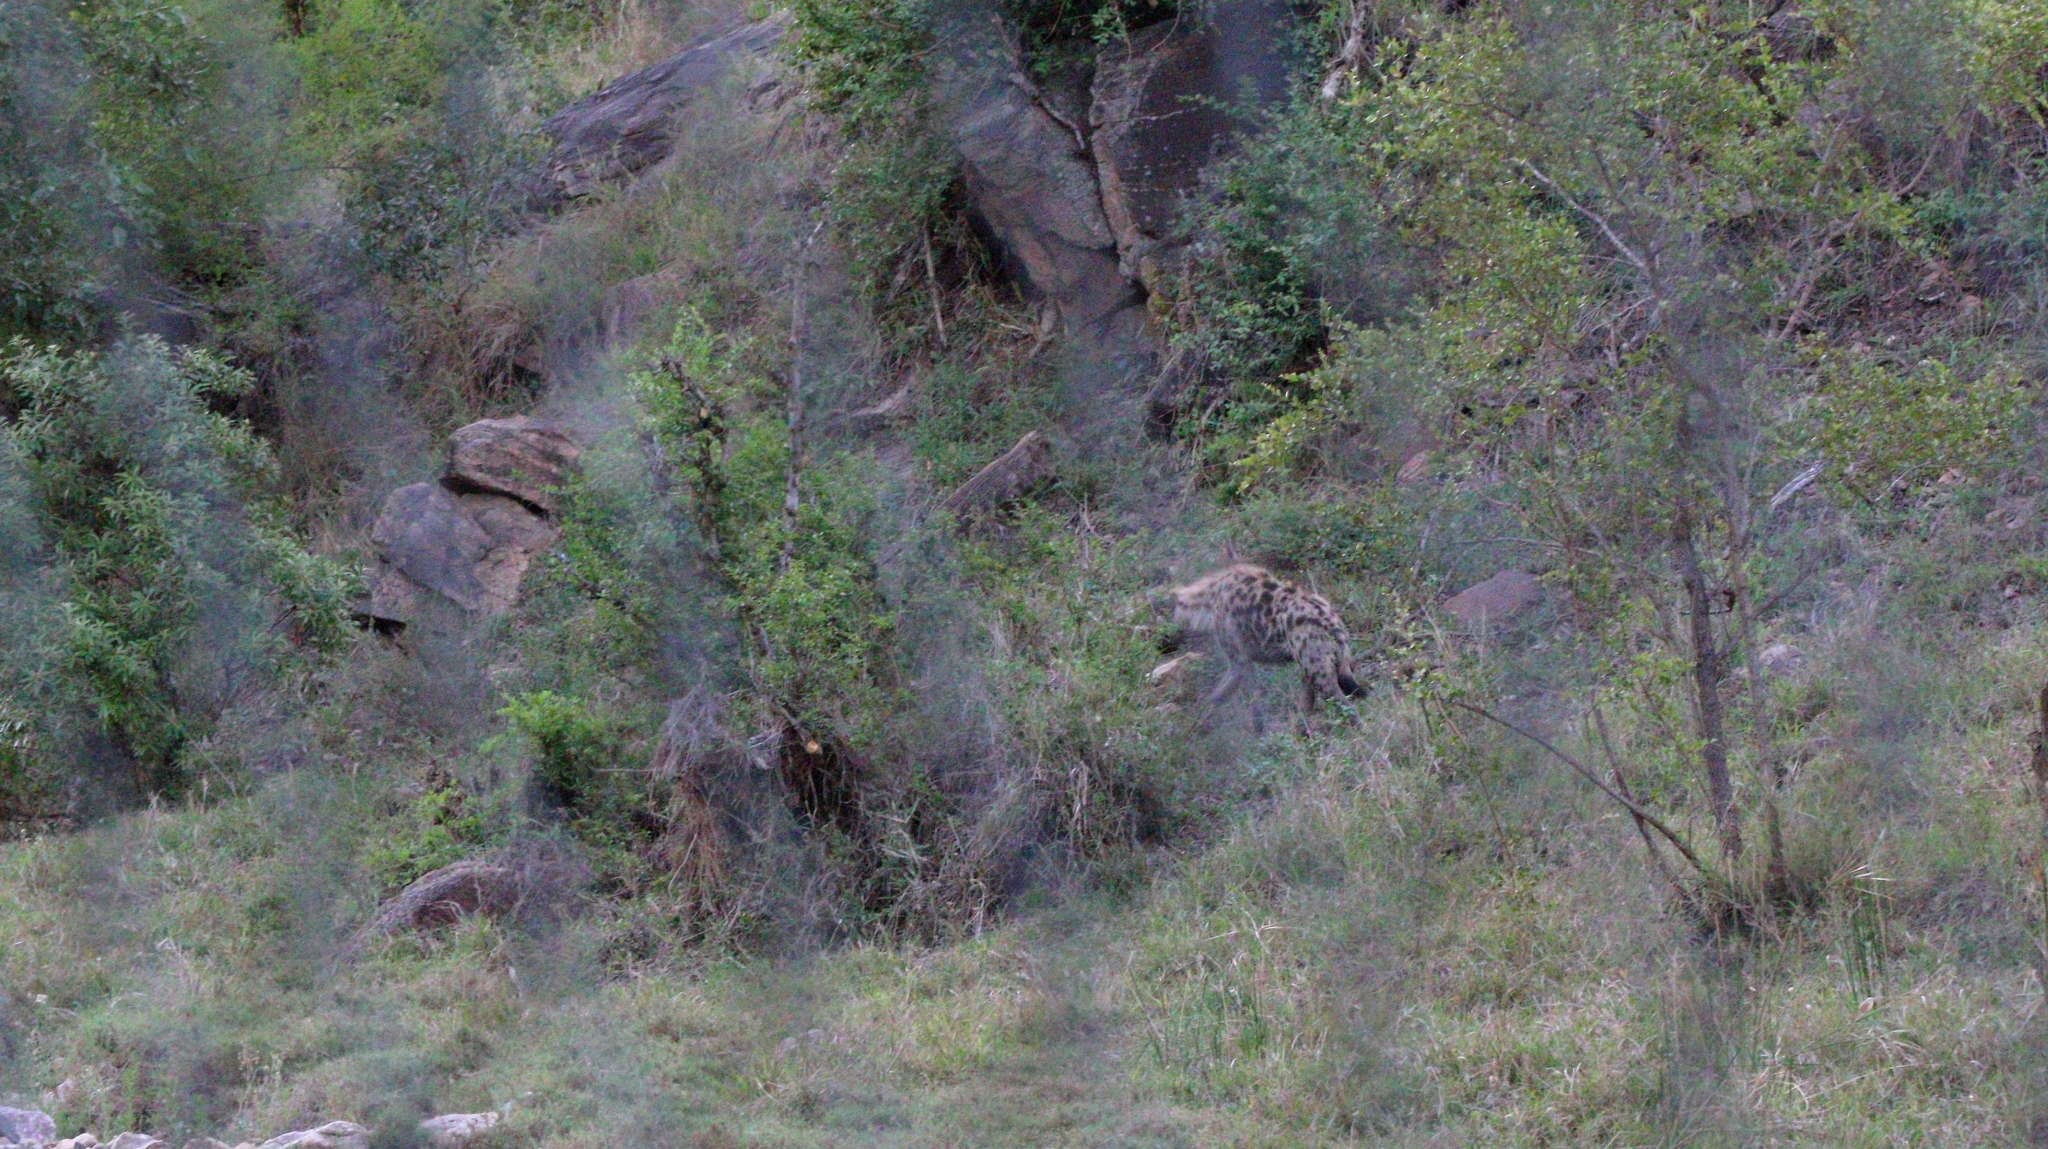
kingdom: Animalia
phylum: Chordata
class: Mammalia
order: Carnivora
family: Hyaenidae
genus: Crocuta
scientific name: Crocuta crocuta
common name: Spotted hyaena
